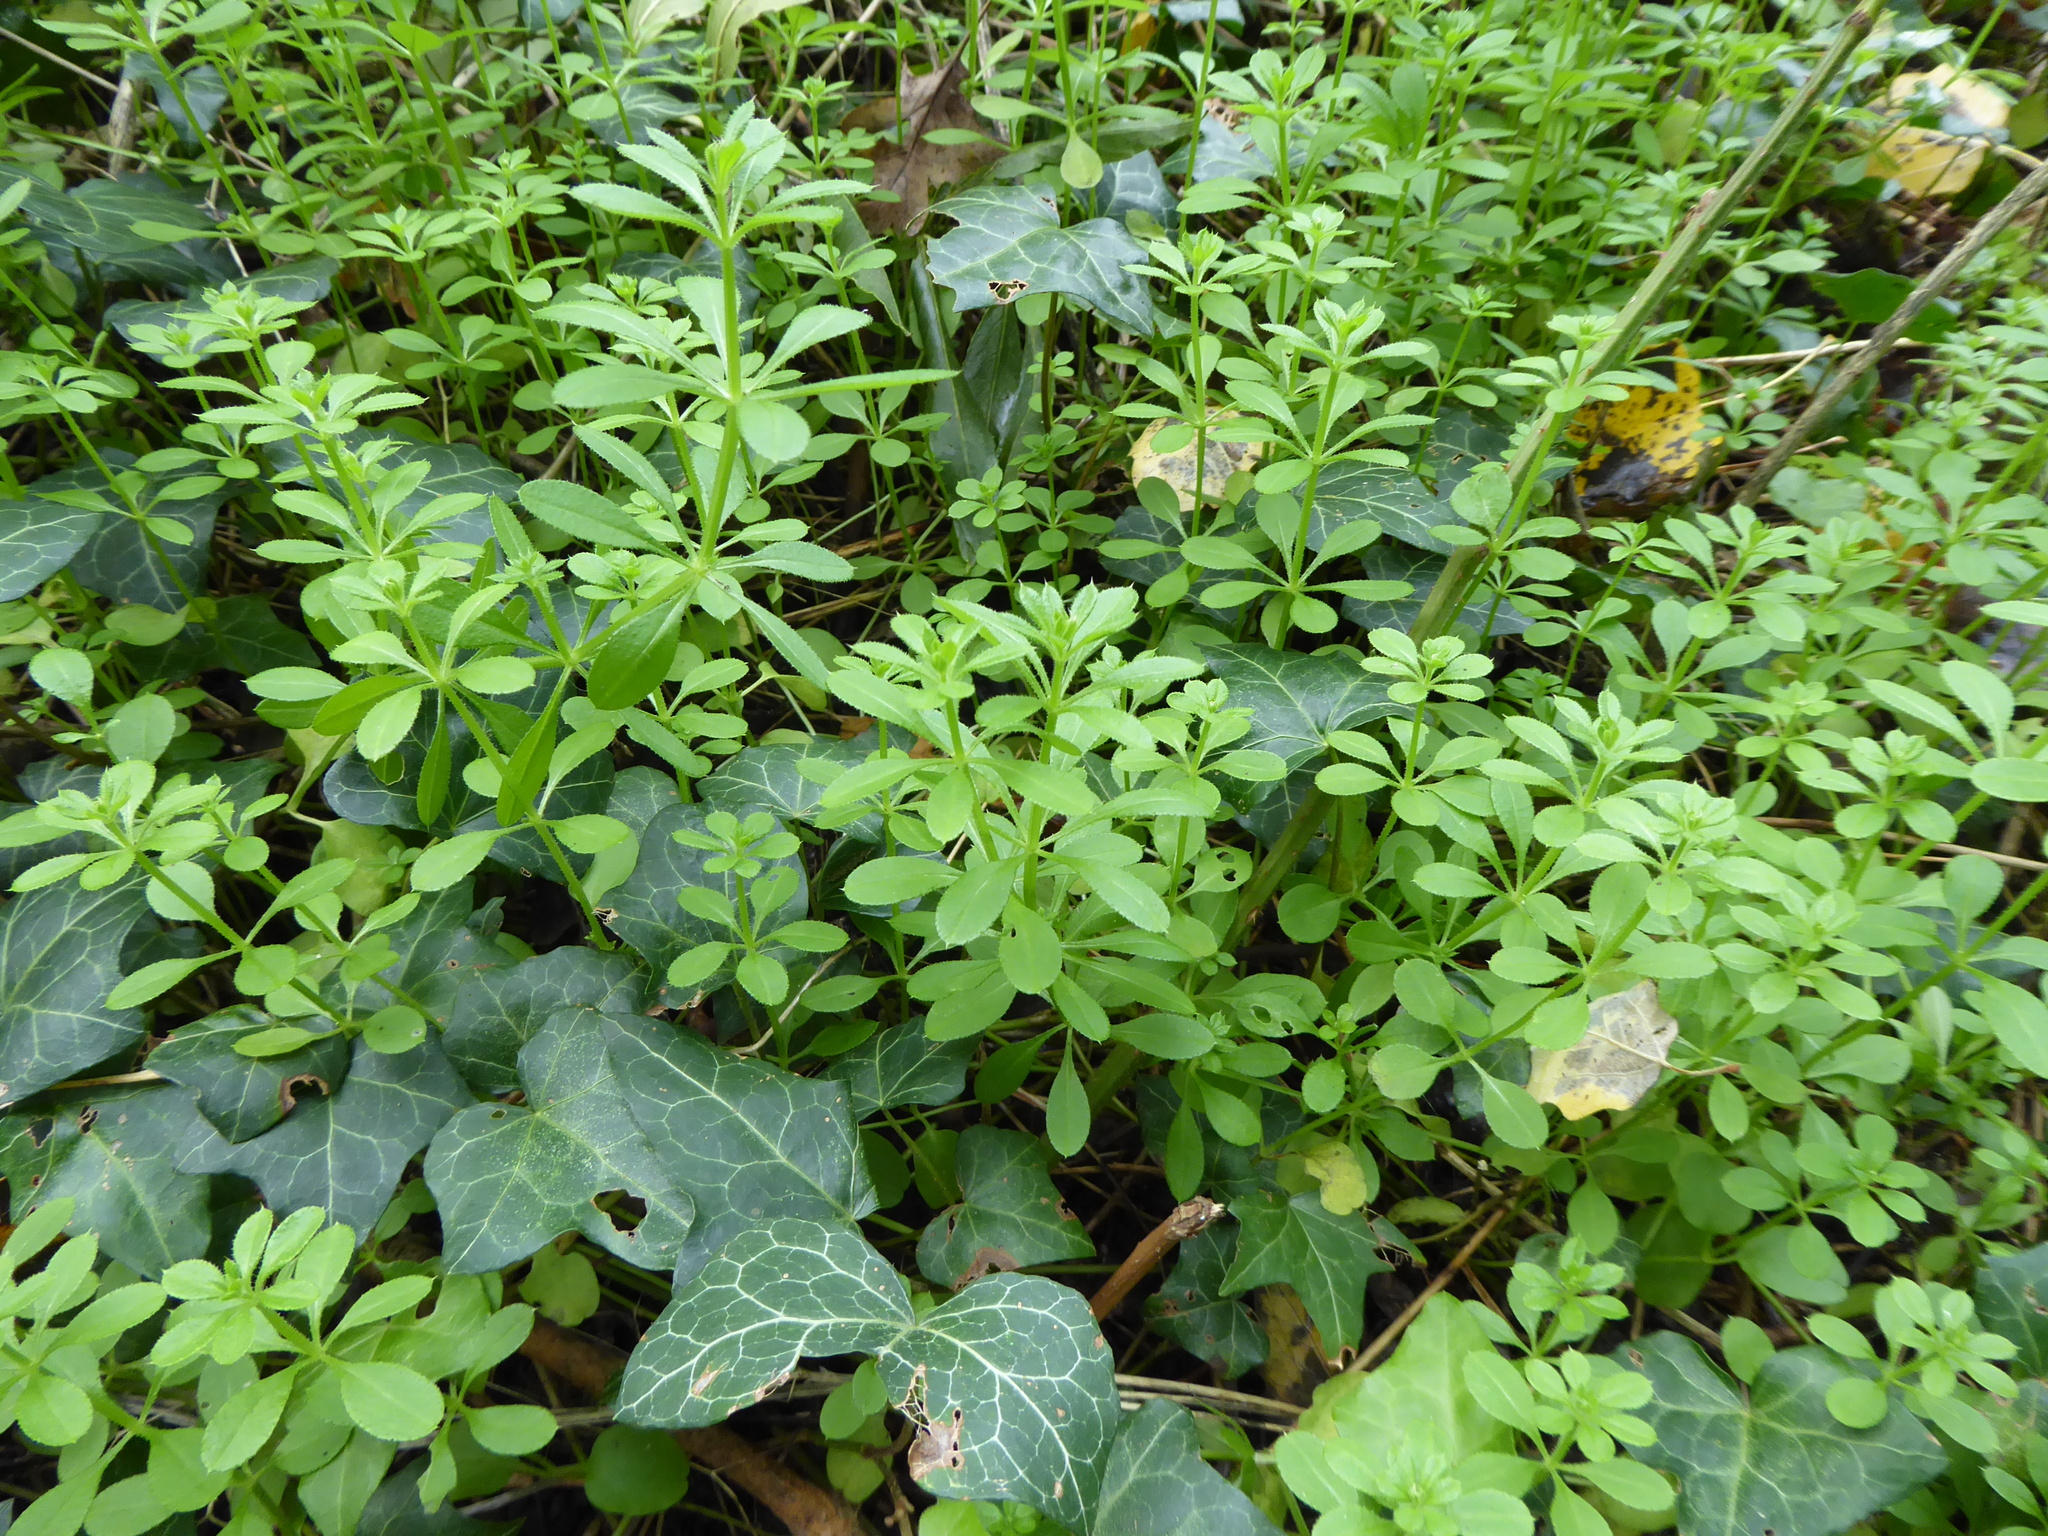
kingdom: Plantae
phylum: Tracheophyta
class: Magnoliopsida
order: Gentianales
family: Rubiaceae
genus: Galium
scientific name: Galium aparine
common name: Cleavers
